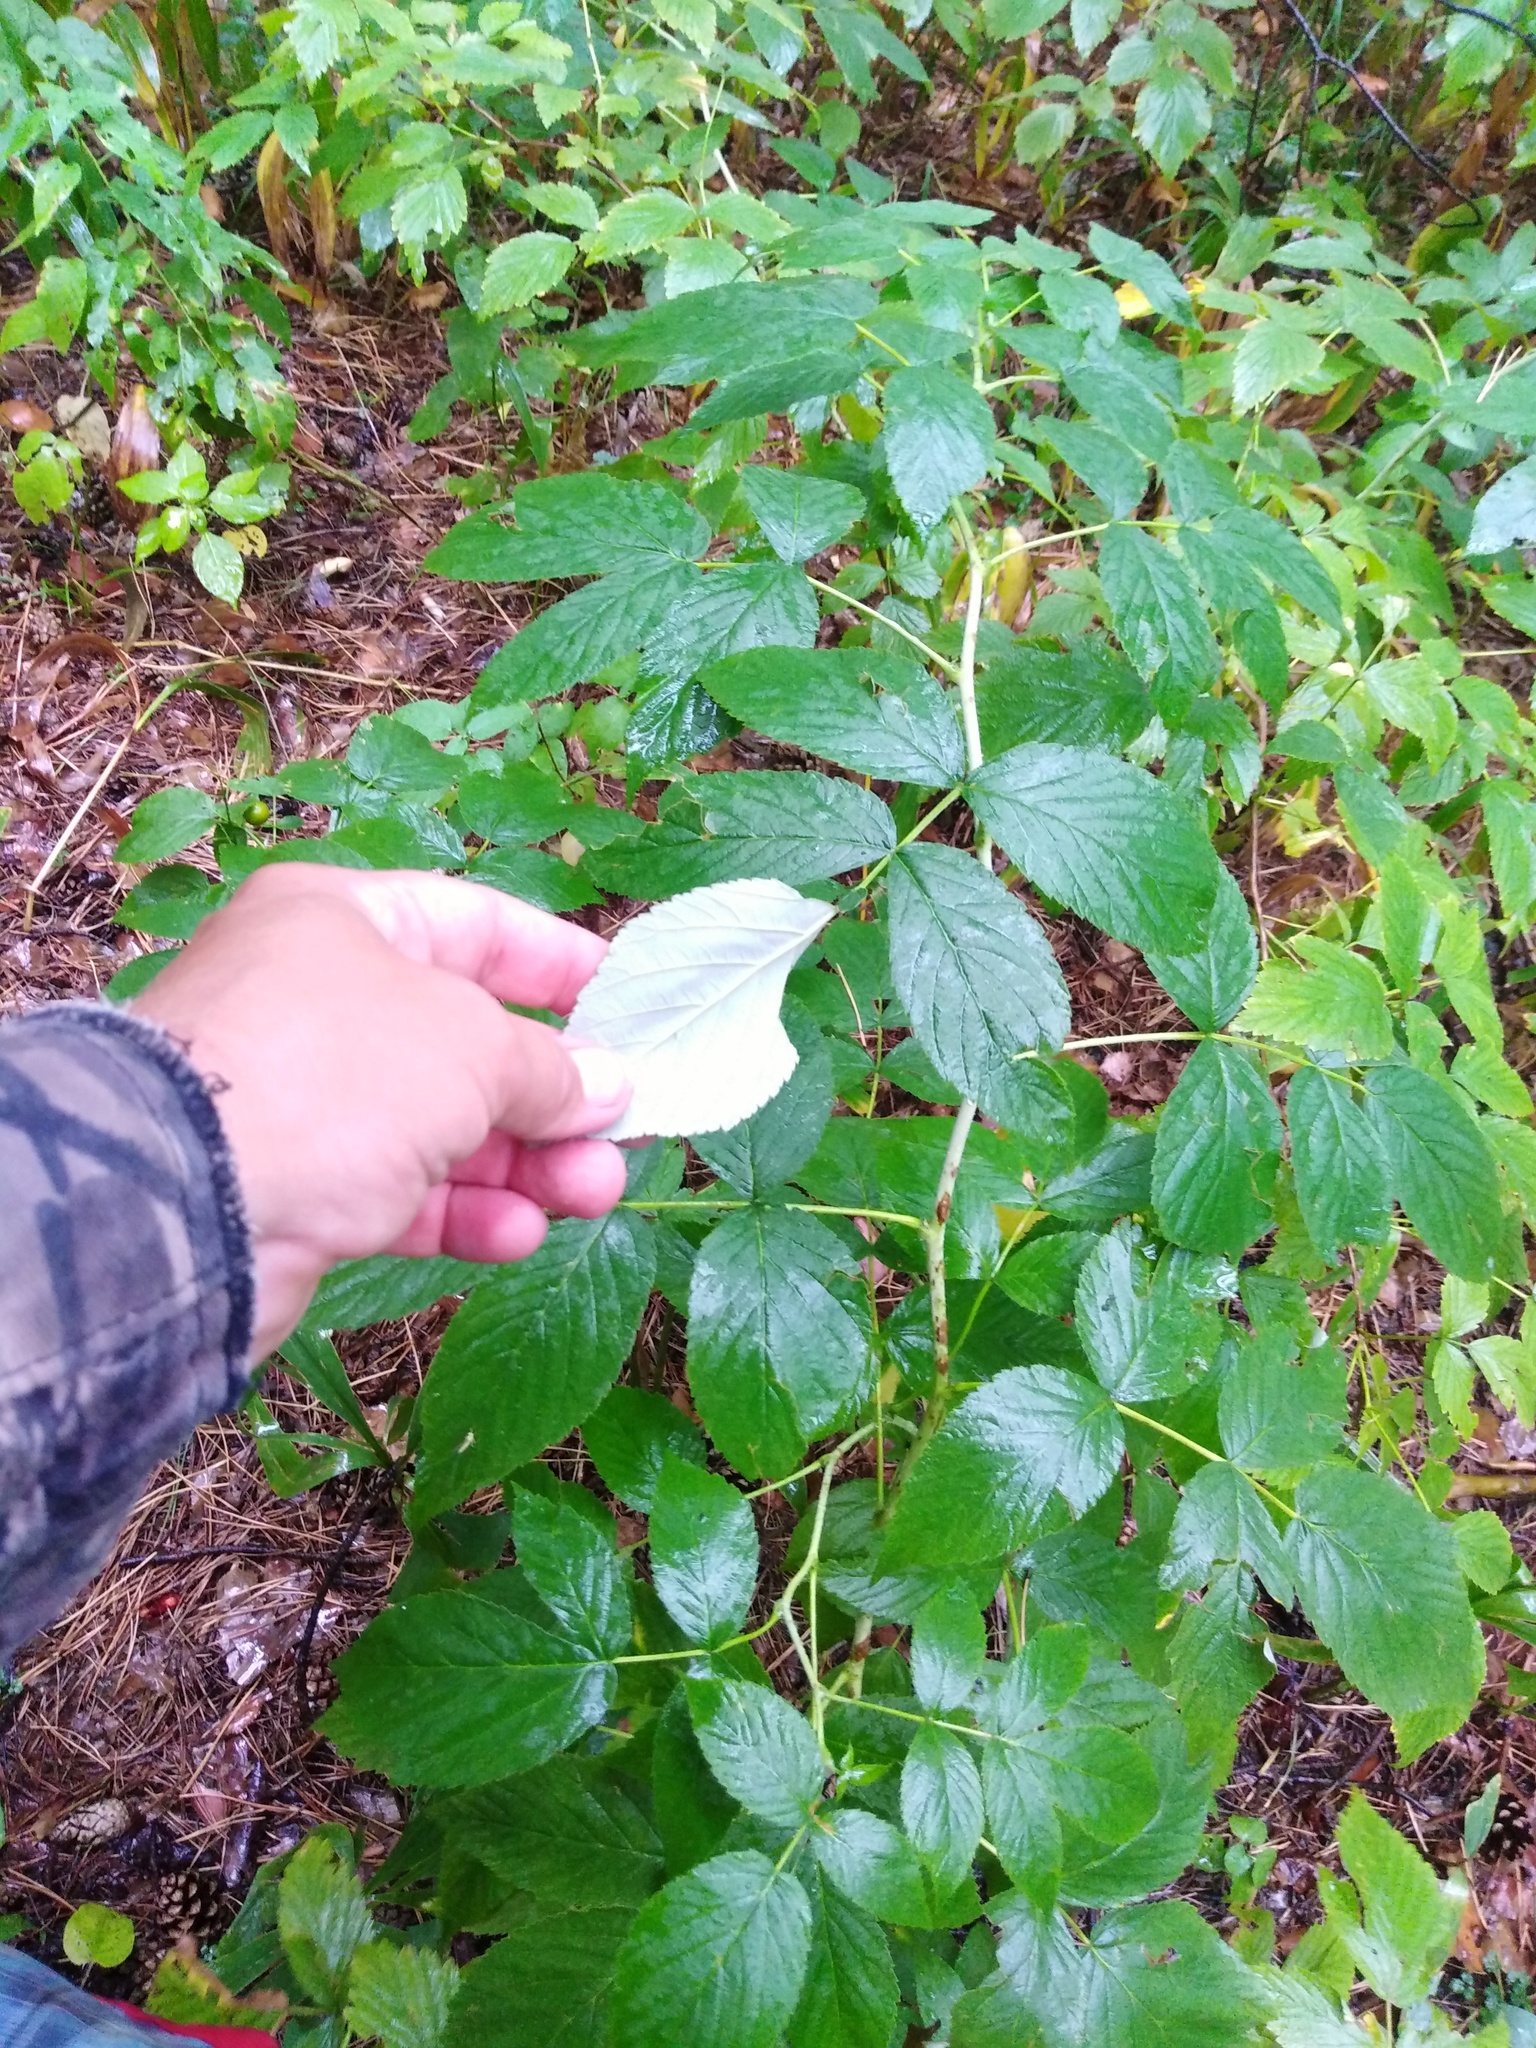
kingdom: Plantae
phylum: Tracheophyta
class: Magnoliopsida
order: Rosales
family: Rosaceae
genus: Rubus
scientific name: Rubus idaeus
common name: Raspberry
